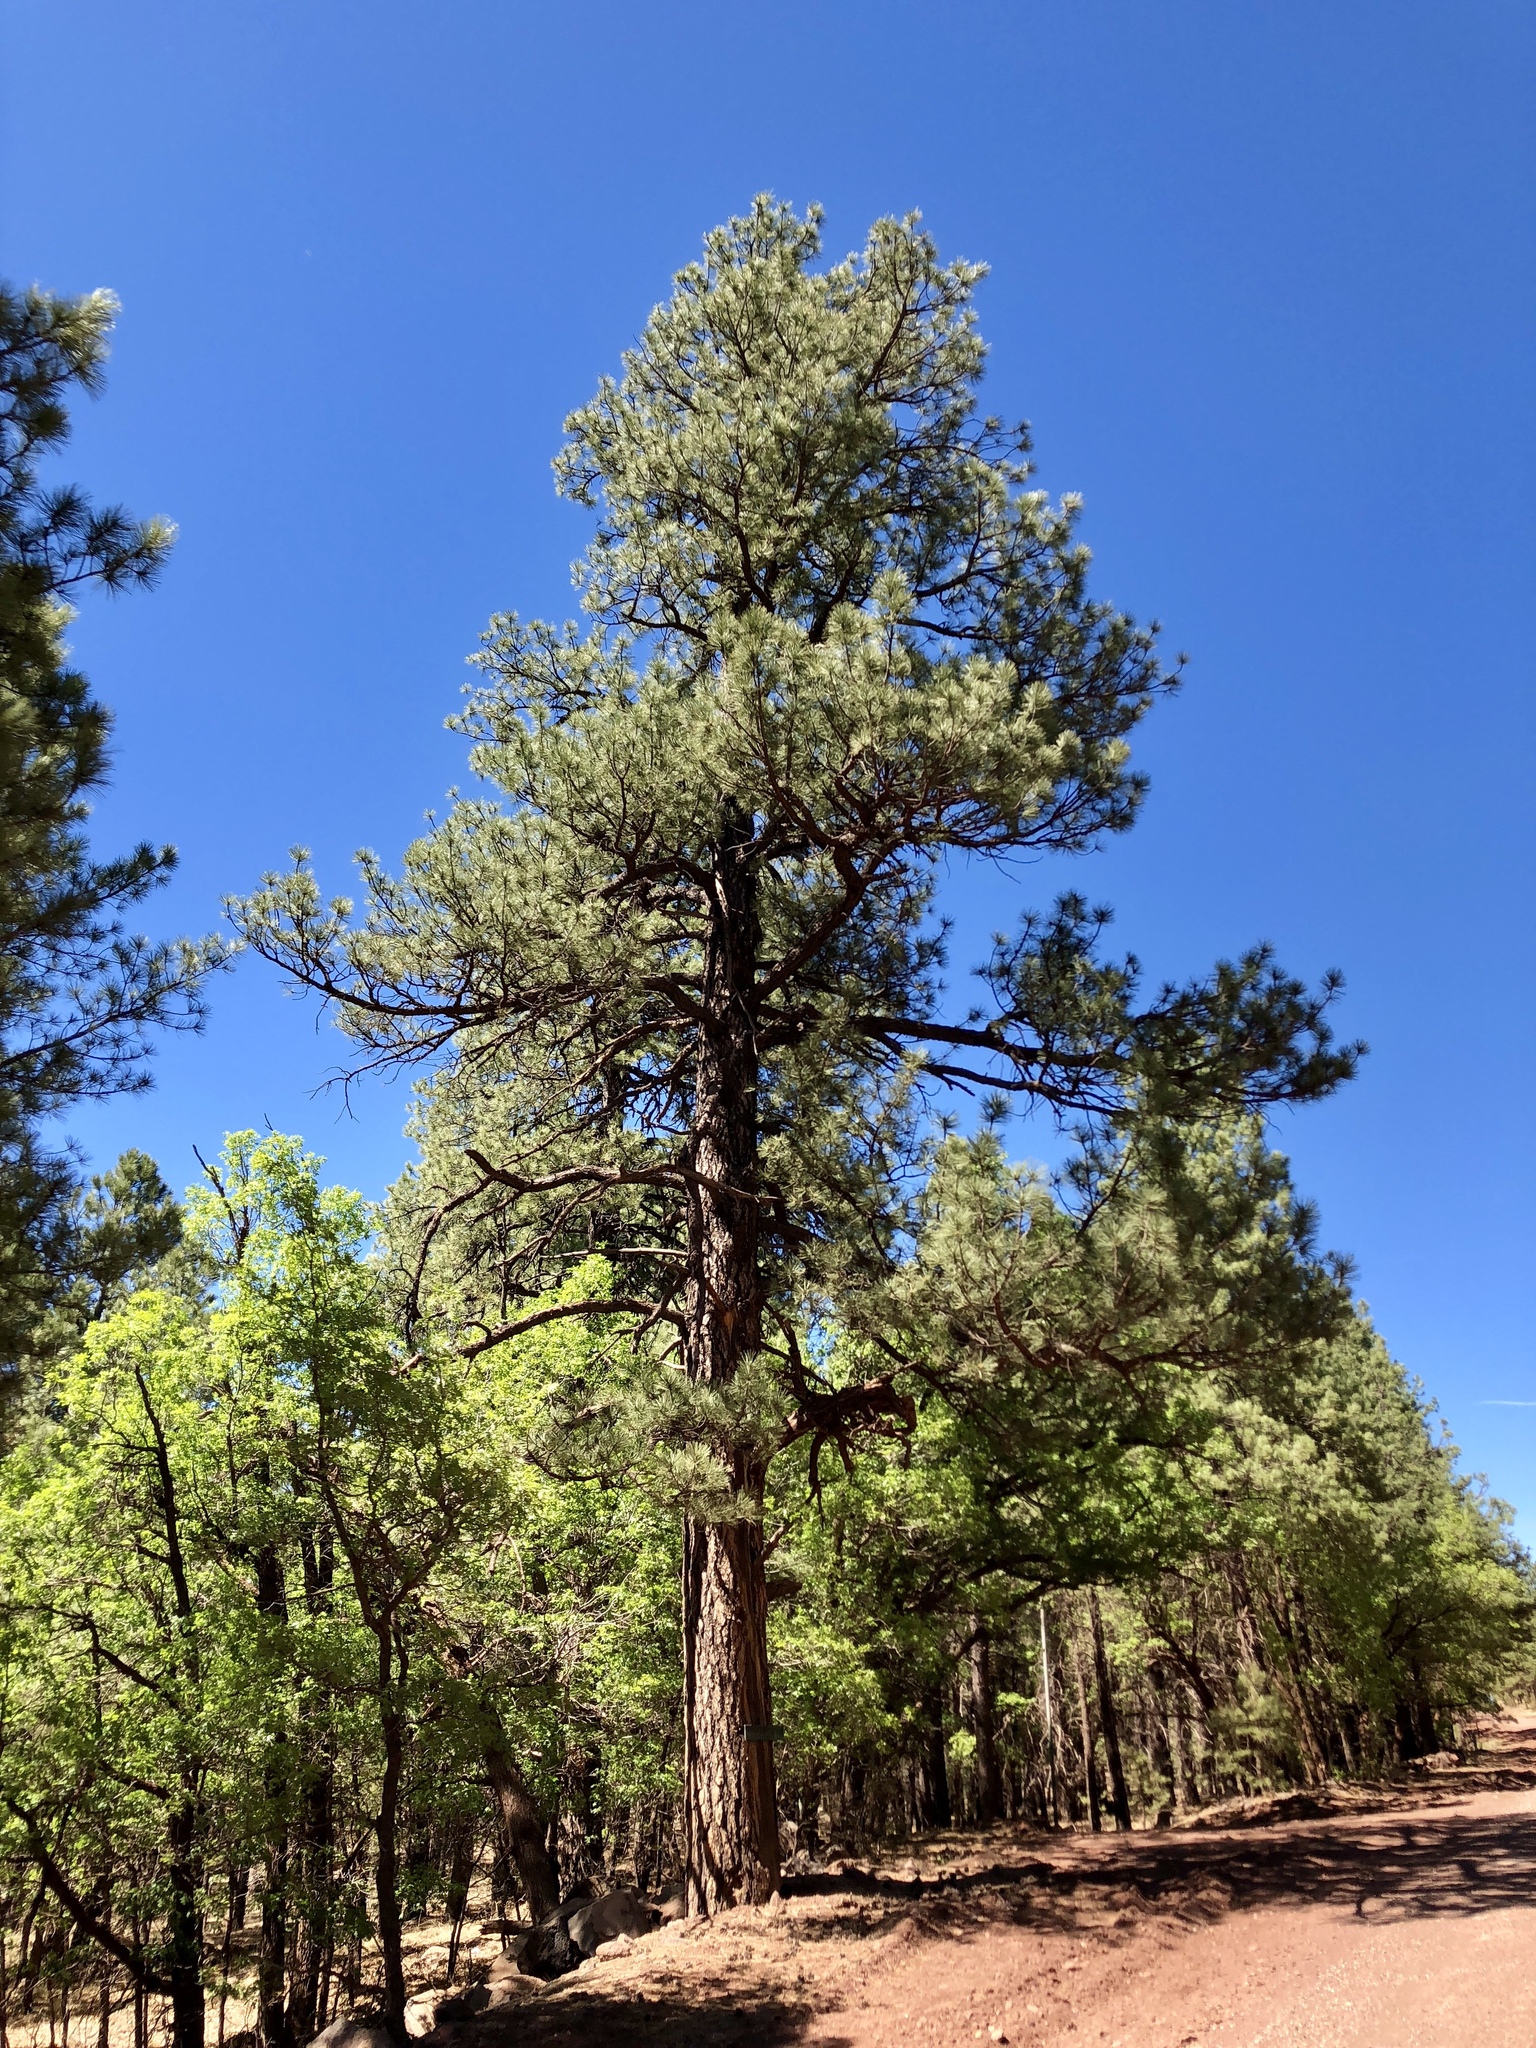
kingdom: Plantae
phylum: Tracheophyta
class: Pinopsida
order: Pinales
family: Pinaceae
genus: Pinus
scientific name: Pinus ponderosa
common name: Western yellow-pine
